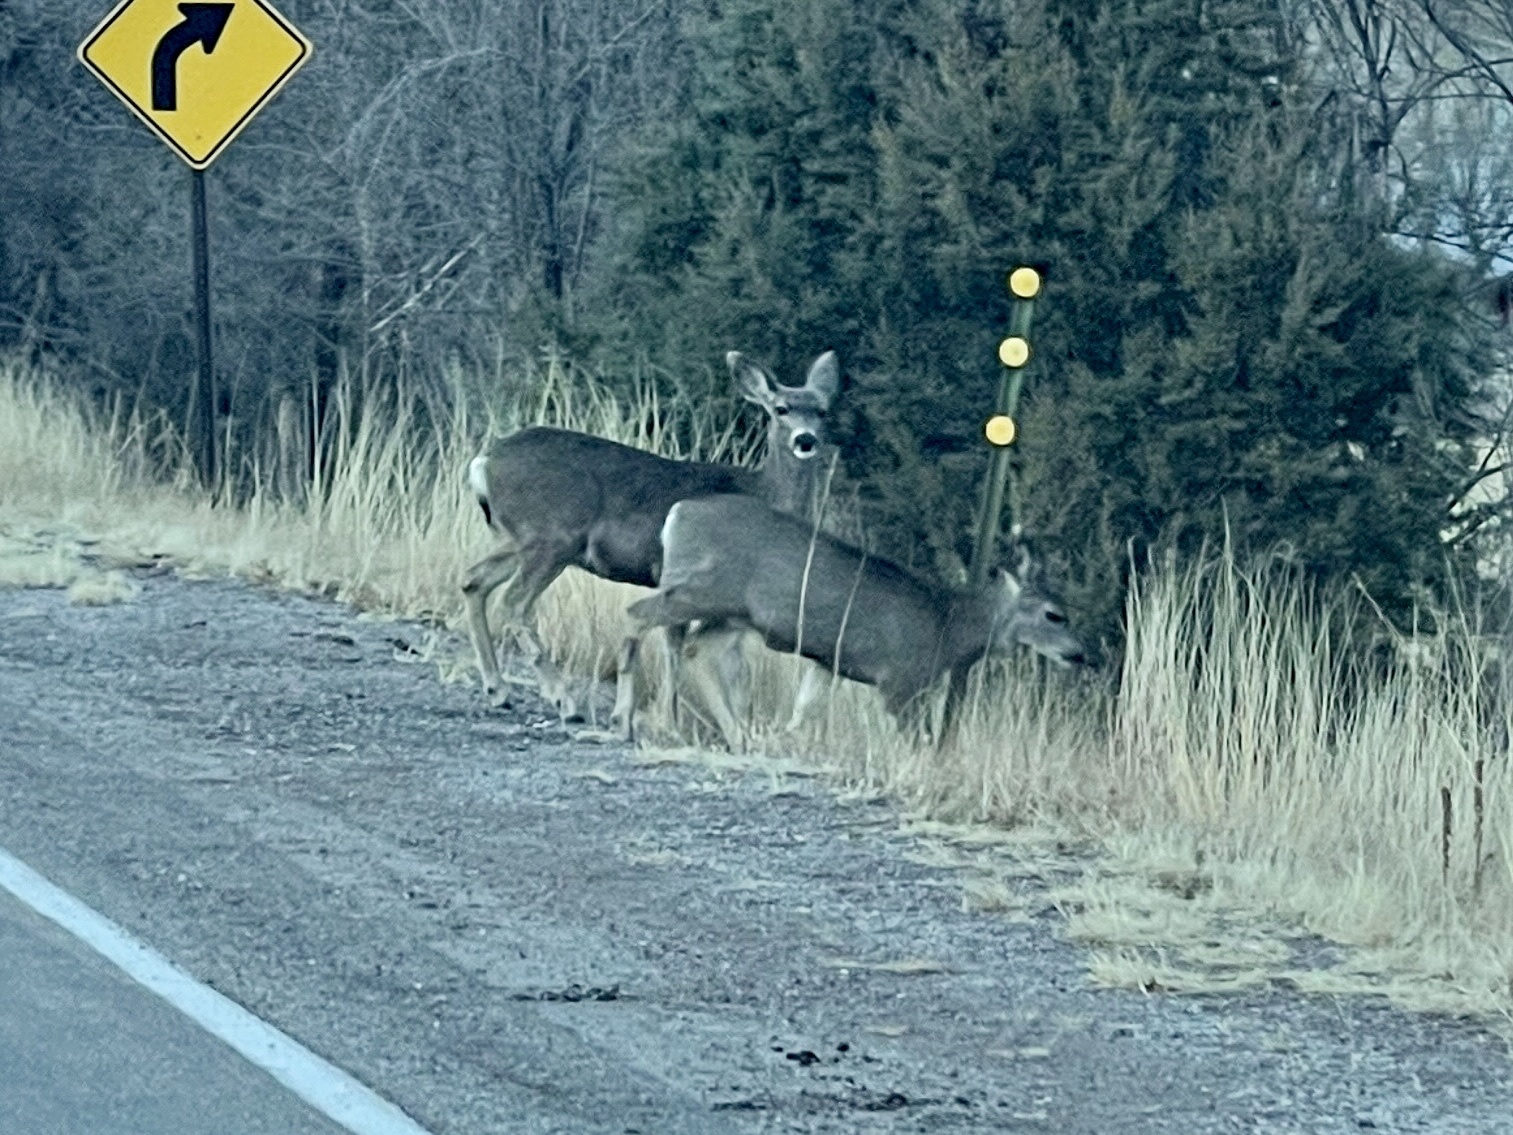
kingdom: Animalia
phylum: Chordata
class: Mammalia
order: Artiodactyla
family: Cervidae
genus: Odocoileus
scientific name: Odocoileus hemionus
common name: Mule deer
